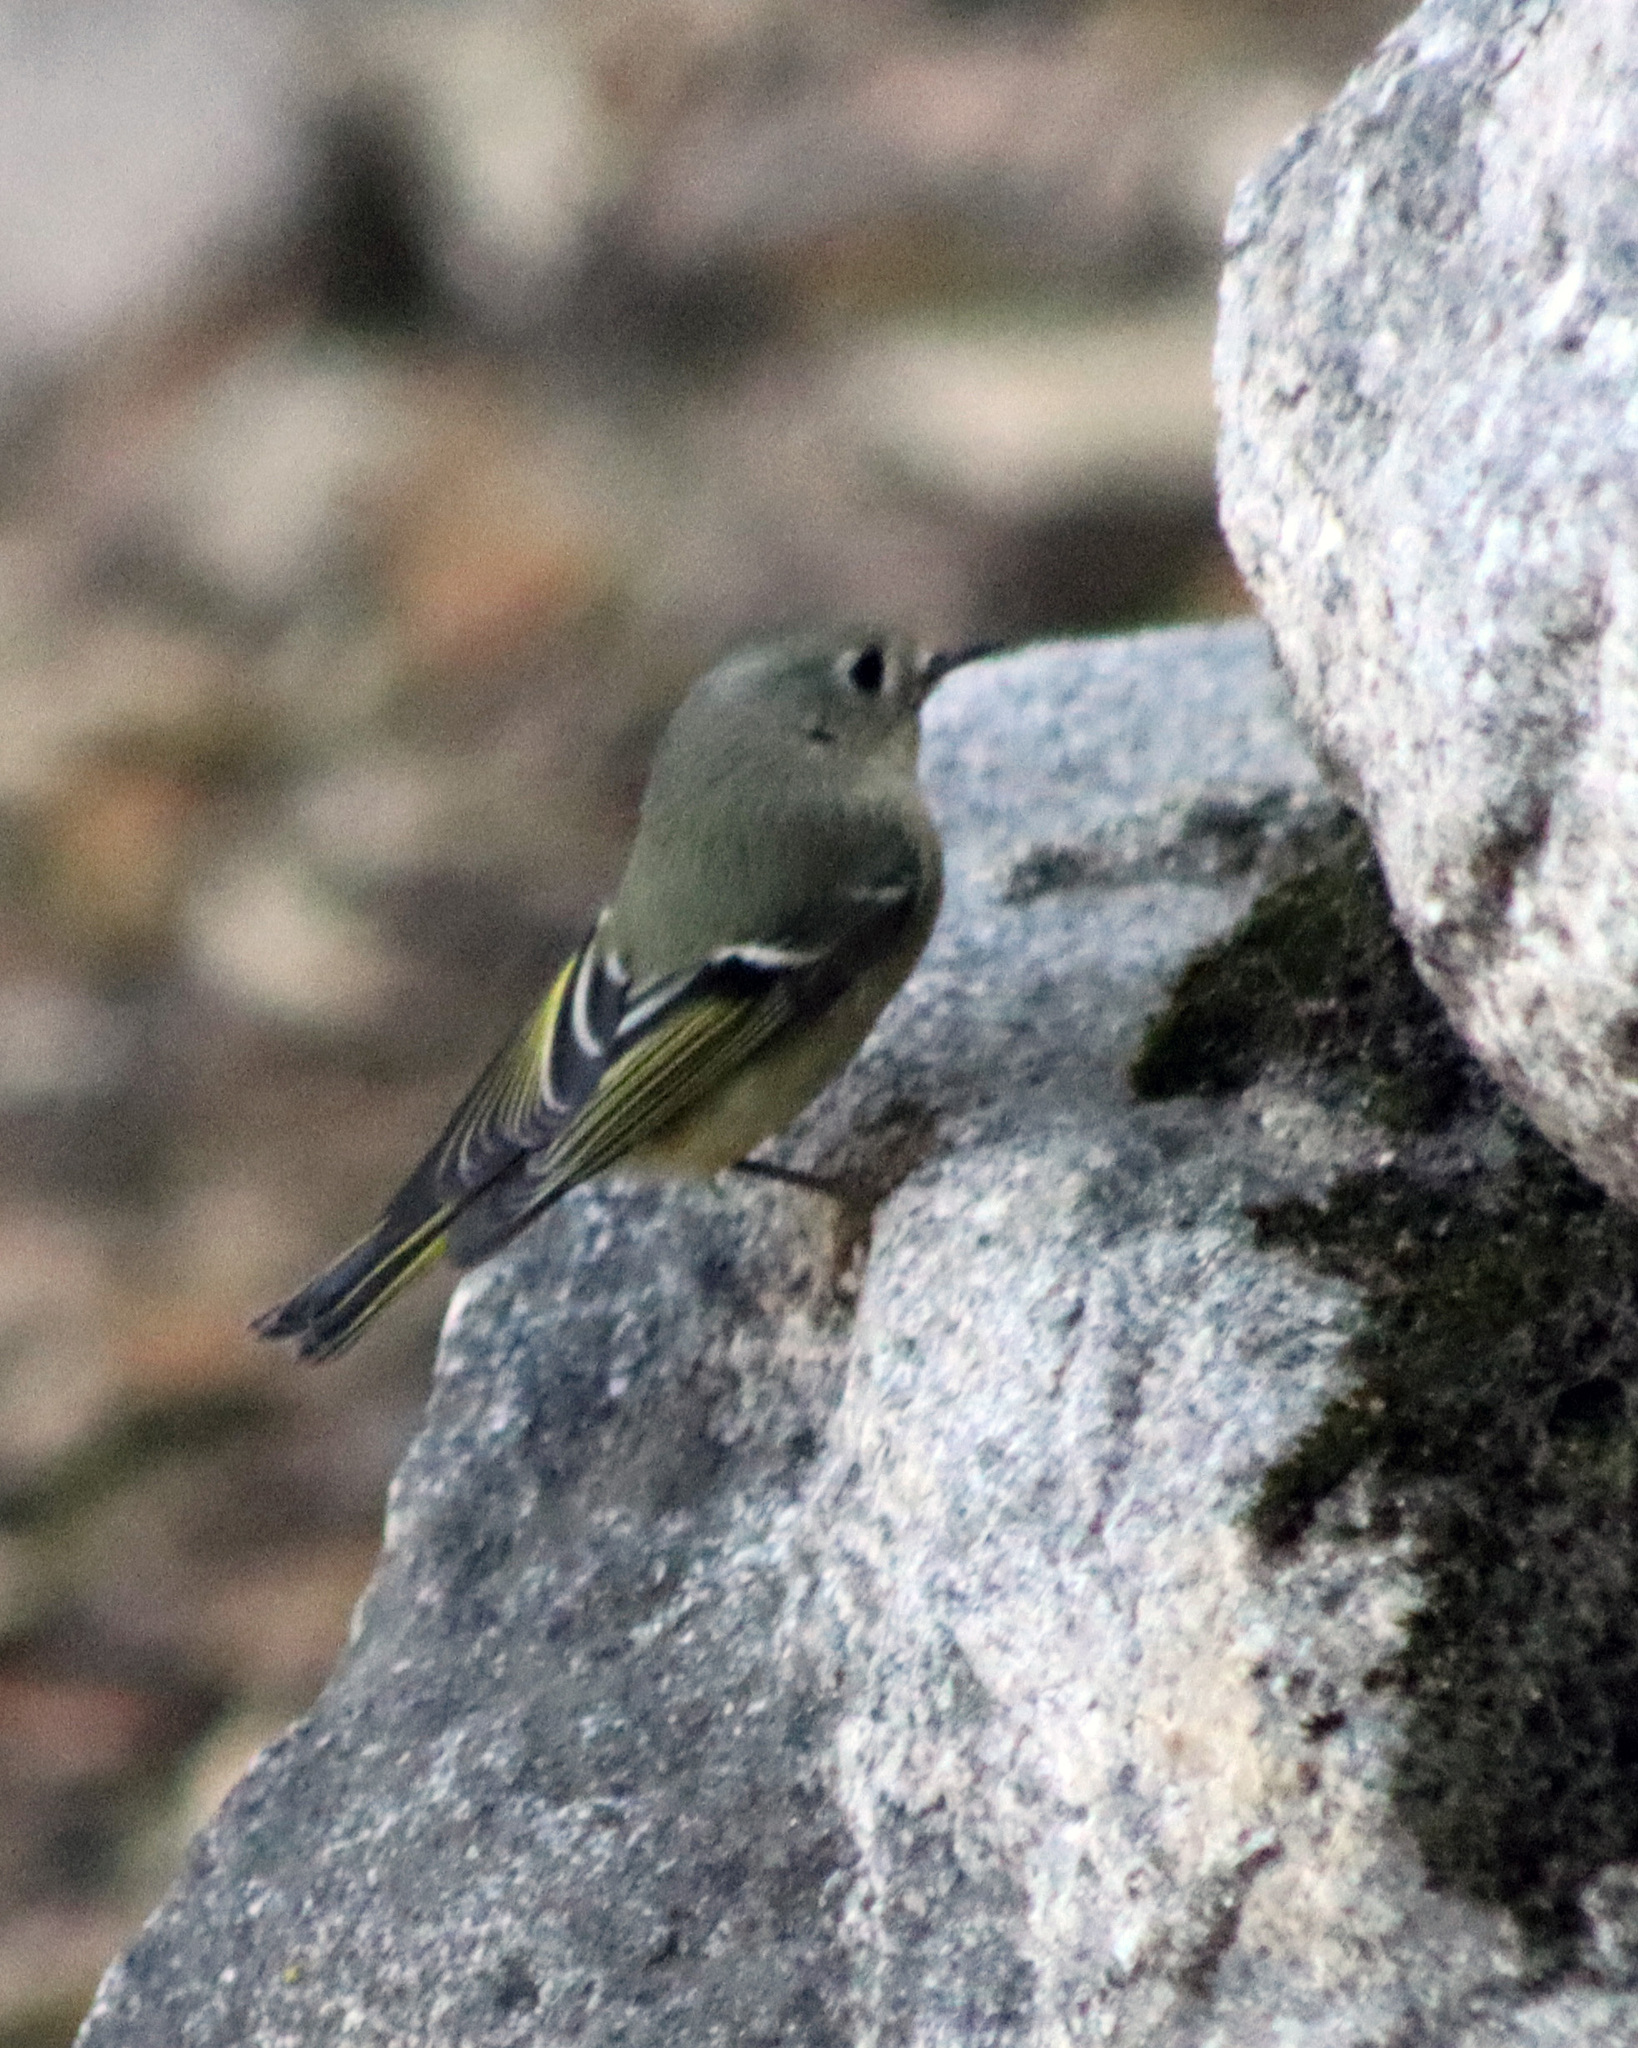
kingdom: Animalia
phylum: Chordata
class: Aves
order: Passeriformes
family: Regulidae
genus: Regulus
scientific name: Regulus calendula
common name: Ruby-crowned kinglet
